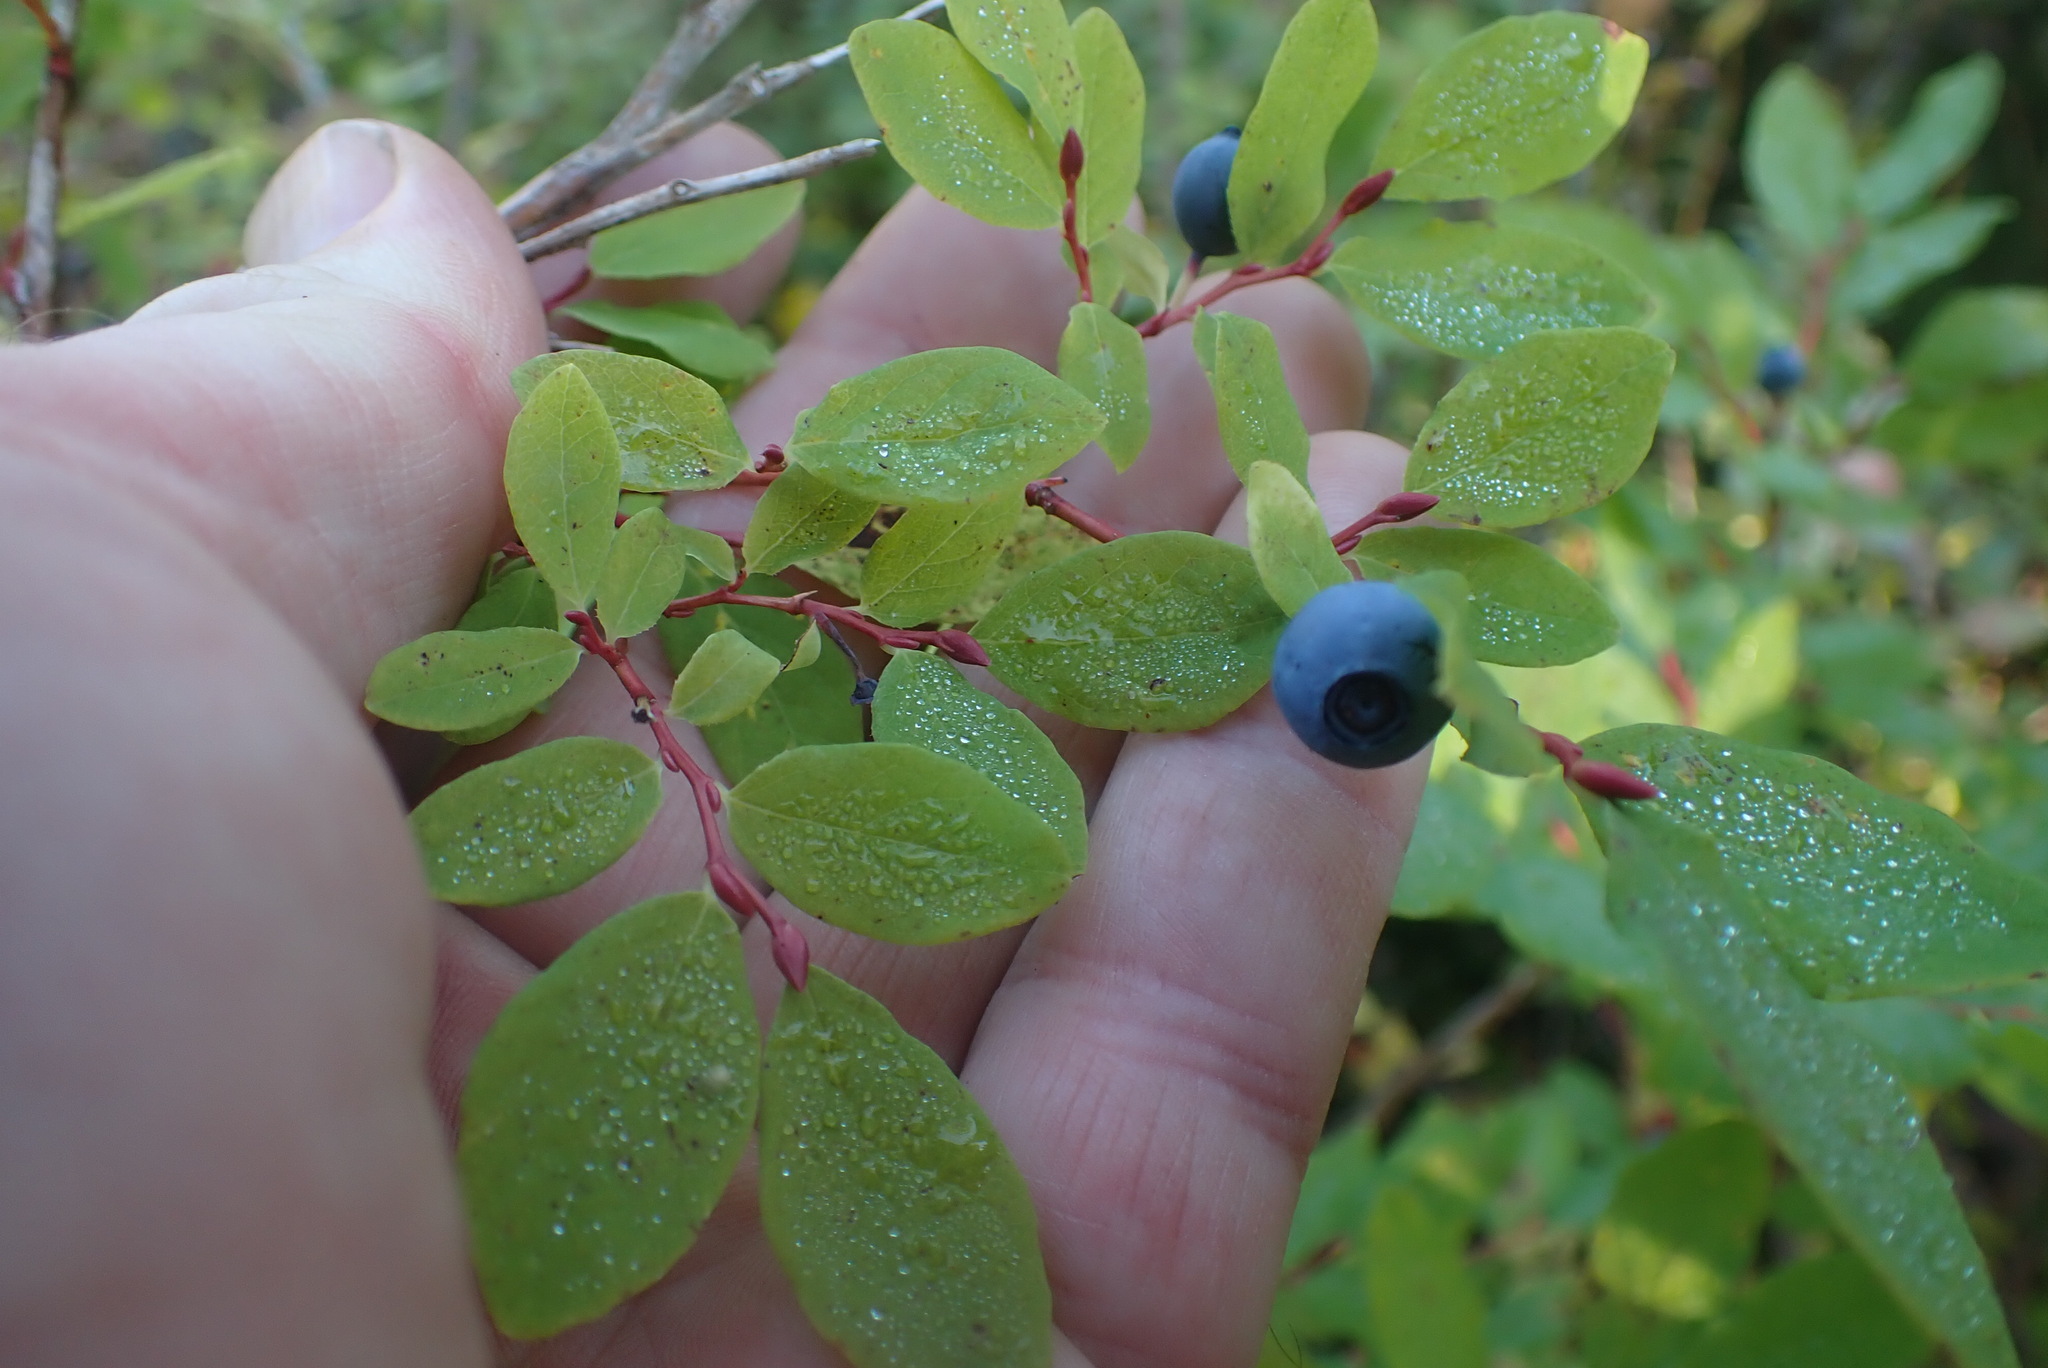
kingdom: Plantae
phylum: Tracheophyta
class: Magnoliopsida
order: Ericales
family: Ericaceae
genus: Vaccinium
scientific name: Vaccinium ovalifolium
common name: Early blueberry
